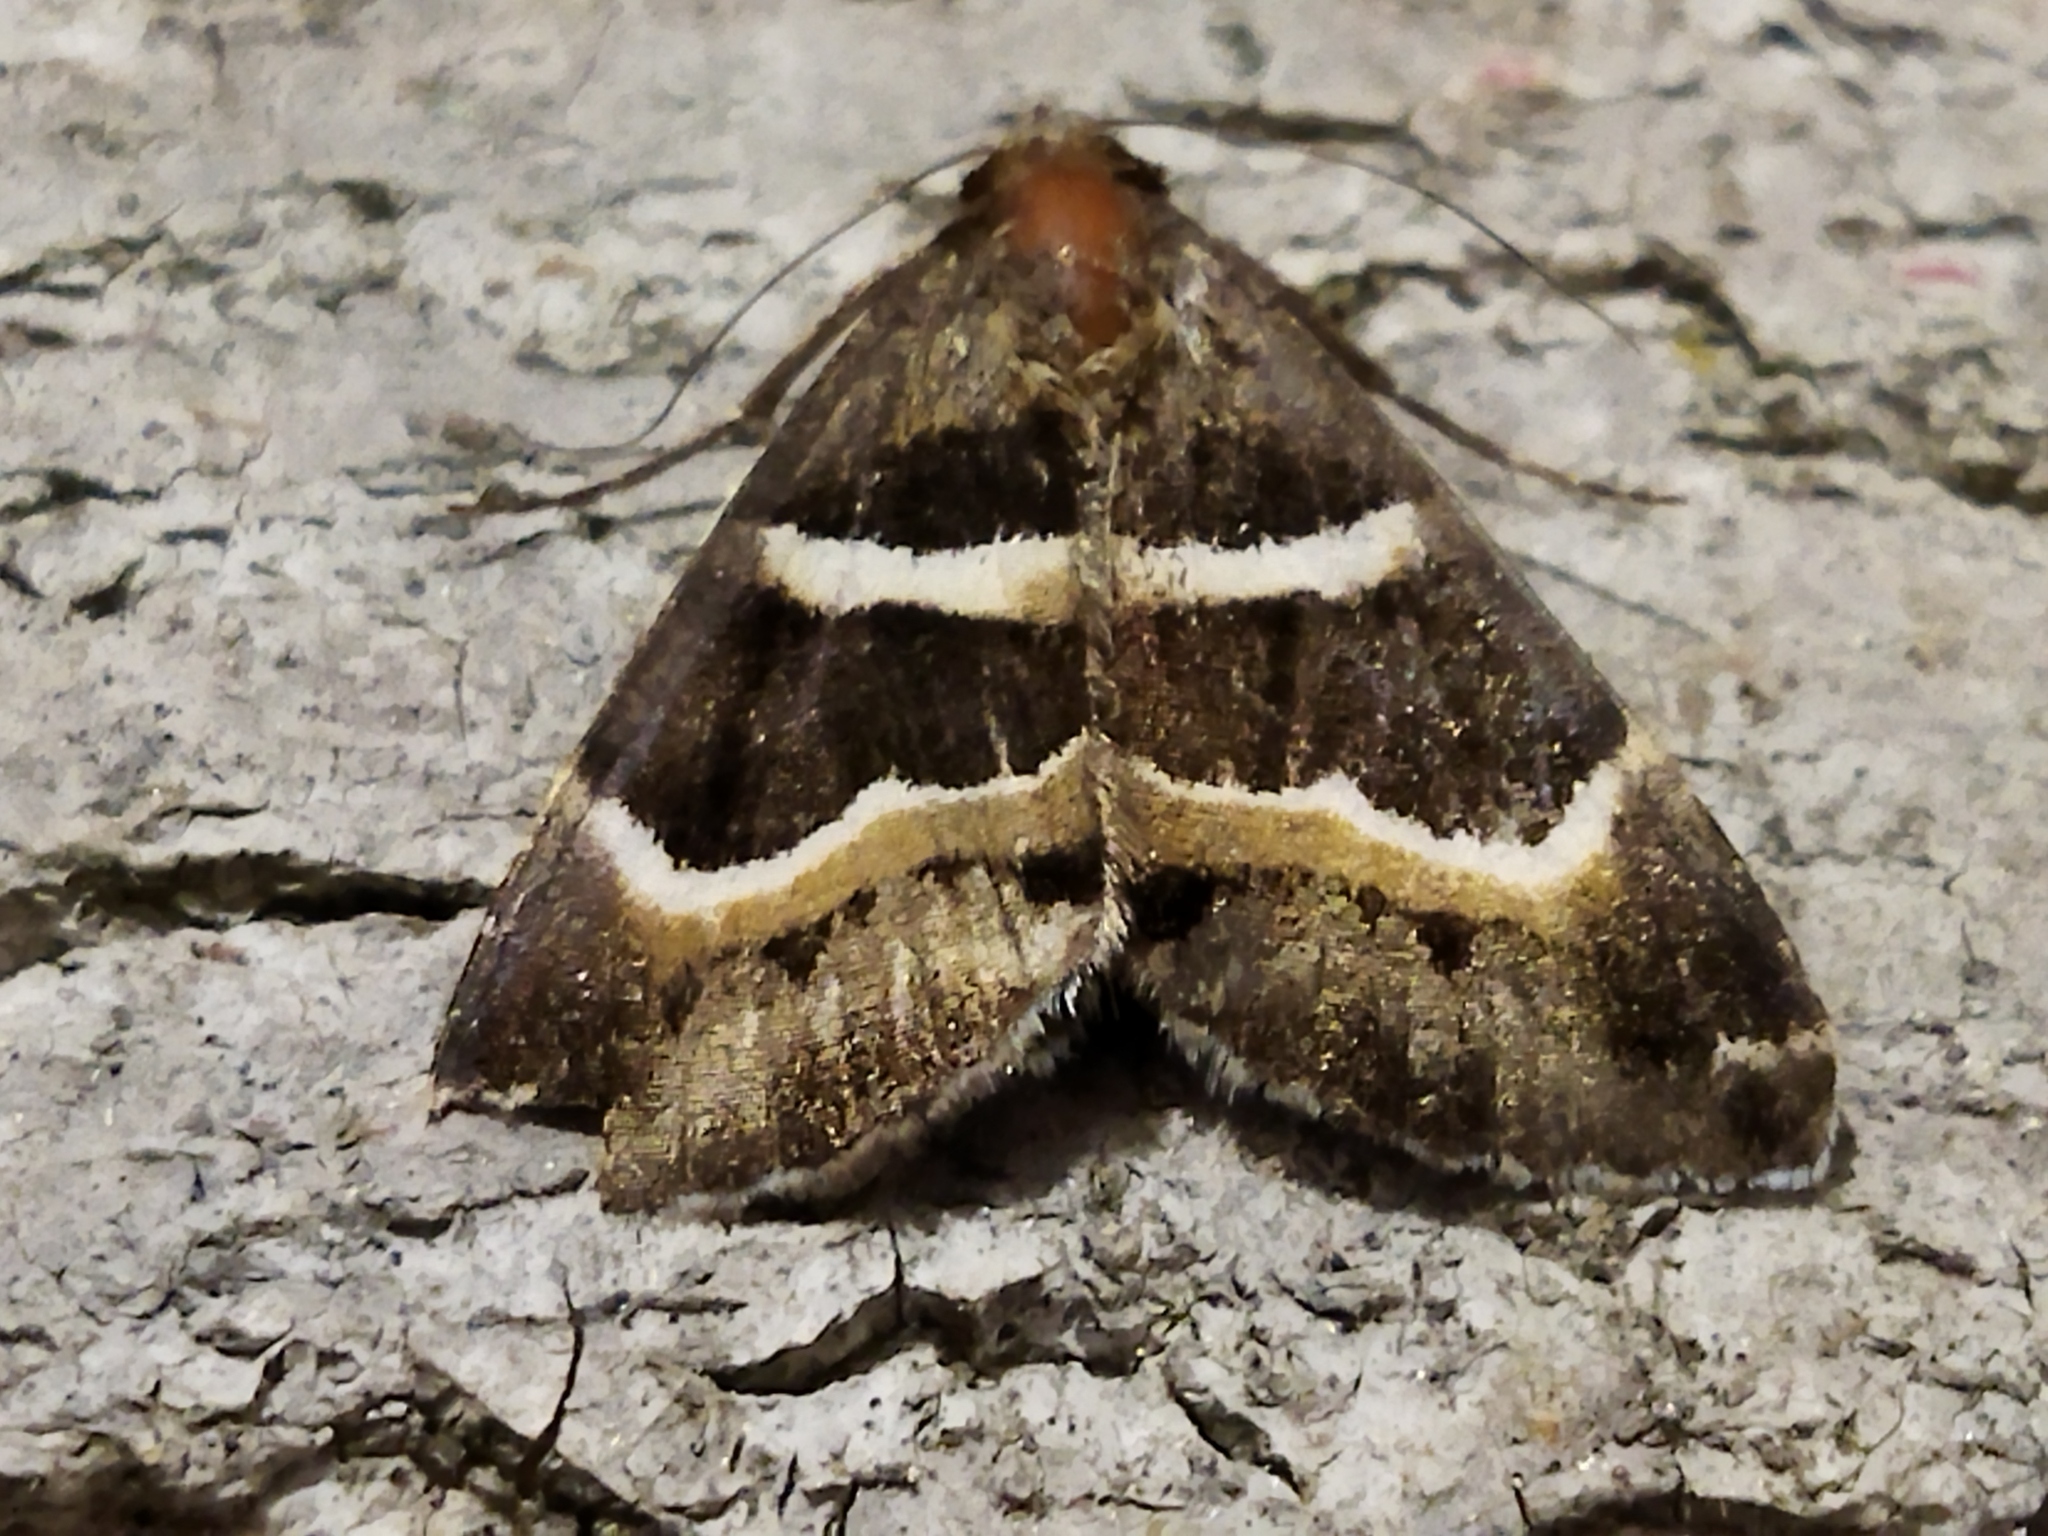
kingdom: Animalia
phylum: Arthropoda
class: Insecta
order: Lepidoptera
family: Erebidae
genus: Grammodes
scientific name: Grammodes stolida
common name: Geometrician
